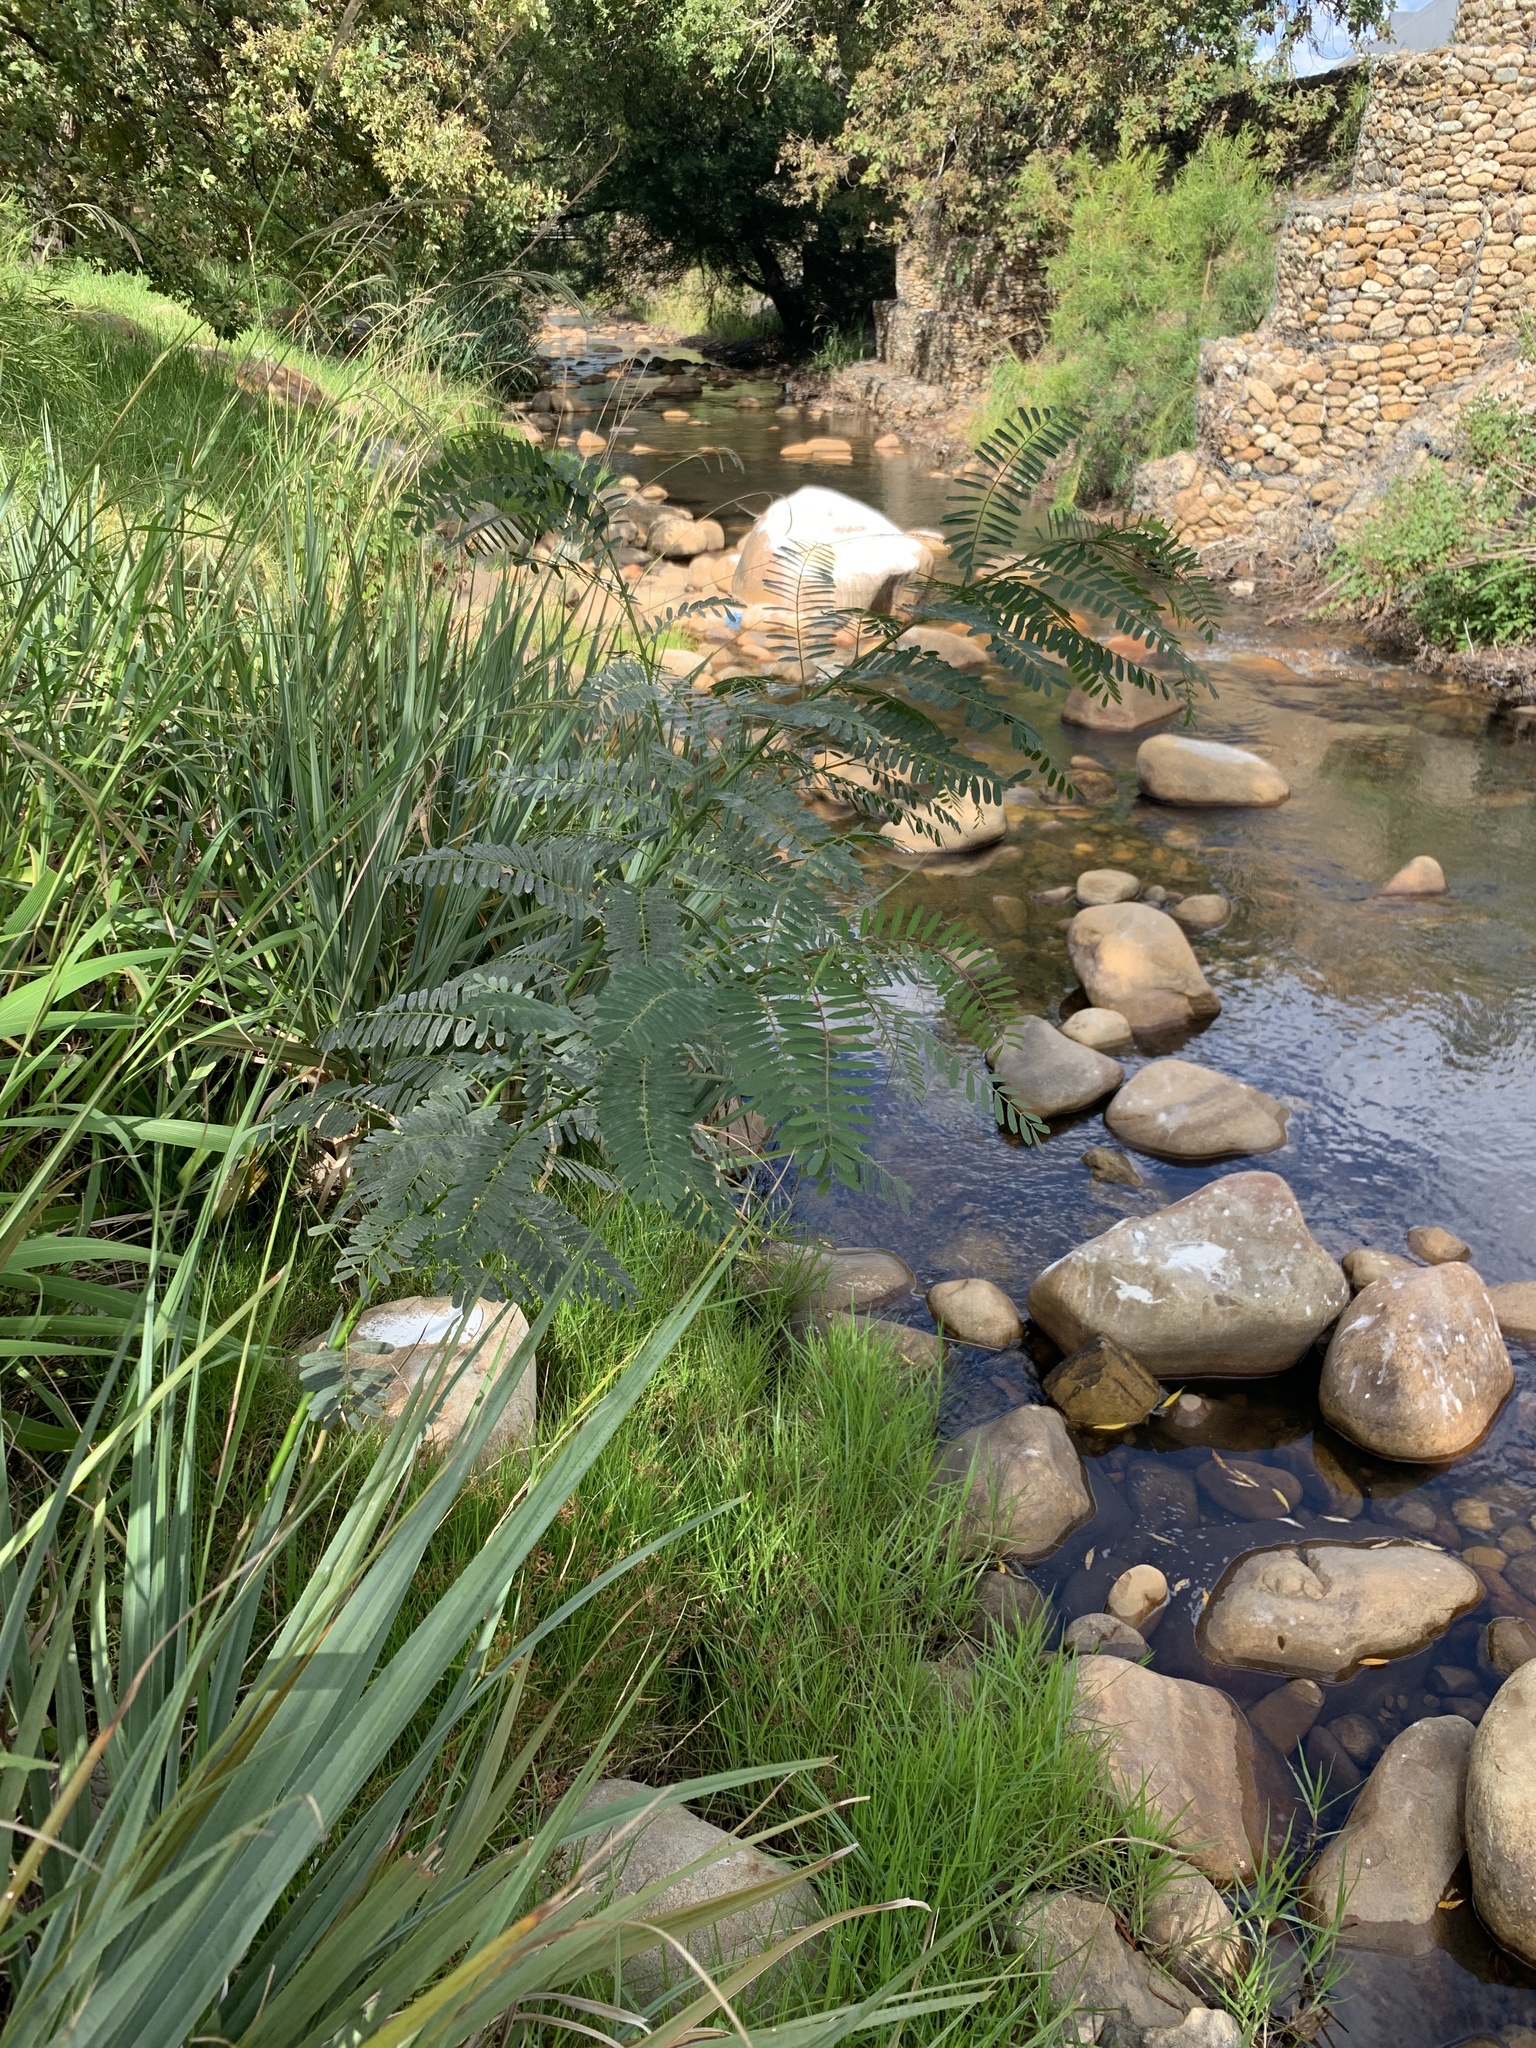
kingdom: Plantae
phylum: Tracheophyta
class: Magnoliopsida
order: Fabales
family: Fabaceae
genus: Sesbania
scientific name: Sesbania punicea
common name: Rattlebox
